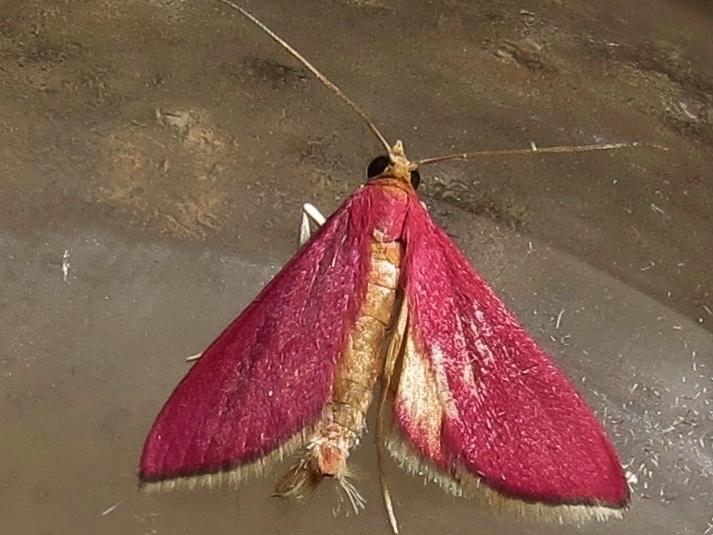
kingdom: Animalia
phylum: Arthropoda
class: Insecta
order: Lepidoptera
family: Crambidae
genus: Pyrausta
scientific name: Pyrausta inornatalis
